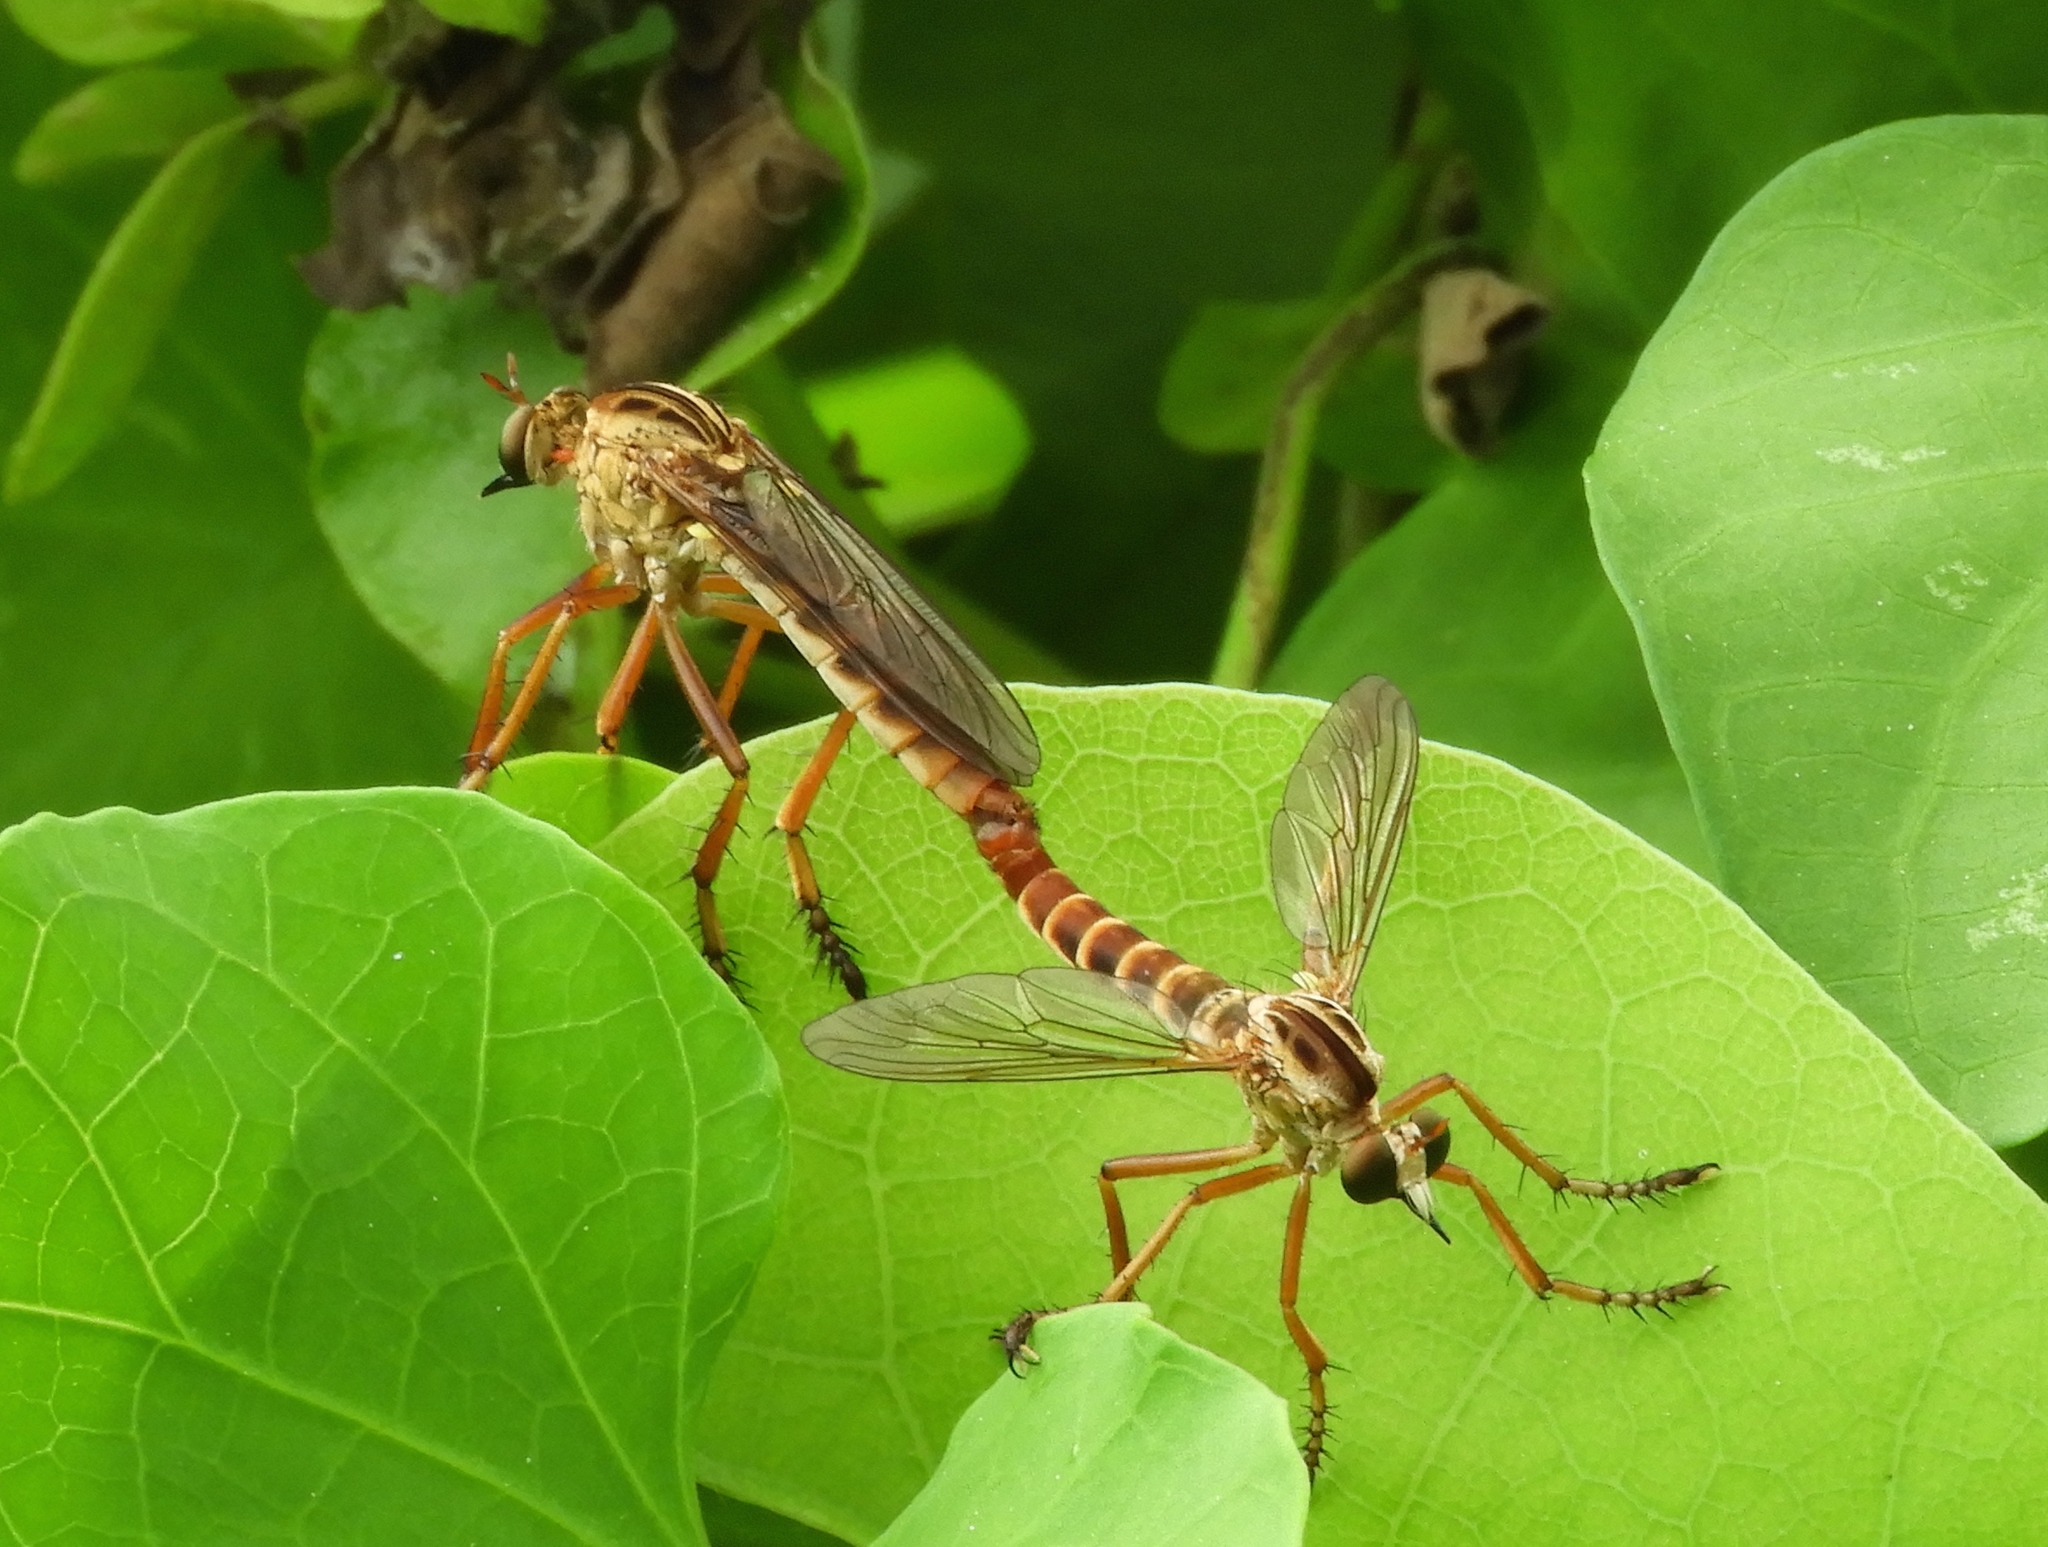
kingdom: Animalia
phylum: Arthropoda
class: Insecta
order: Diptera
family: Asilidae
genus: Diogmites
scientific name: Diogmites
